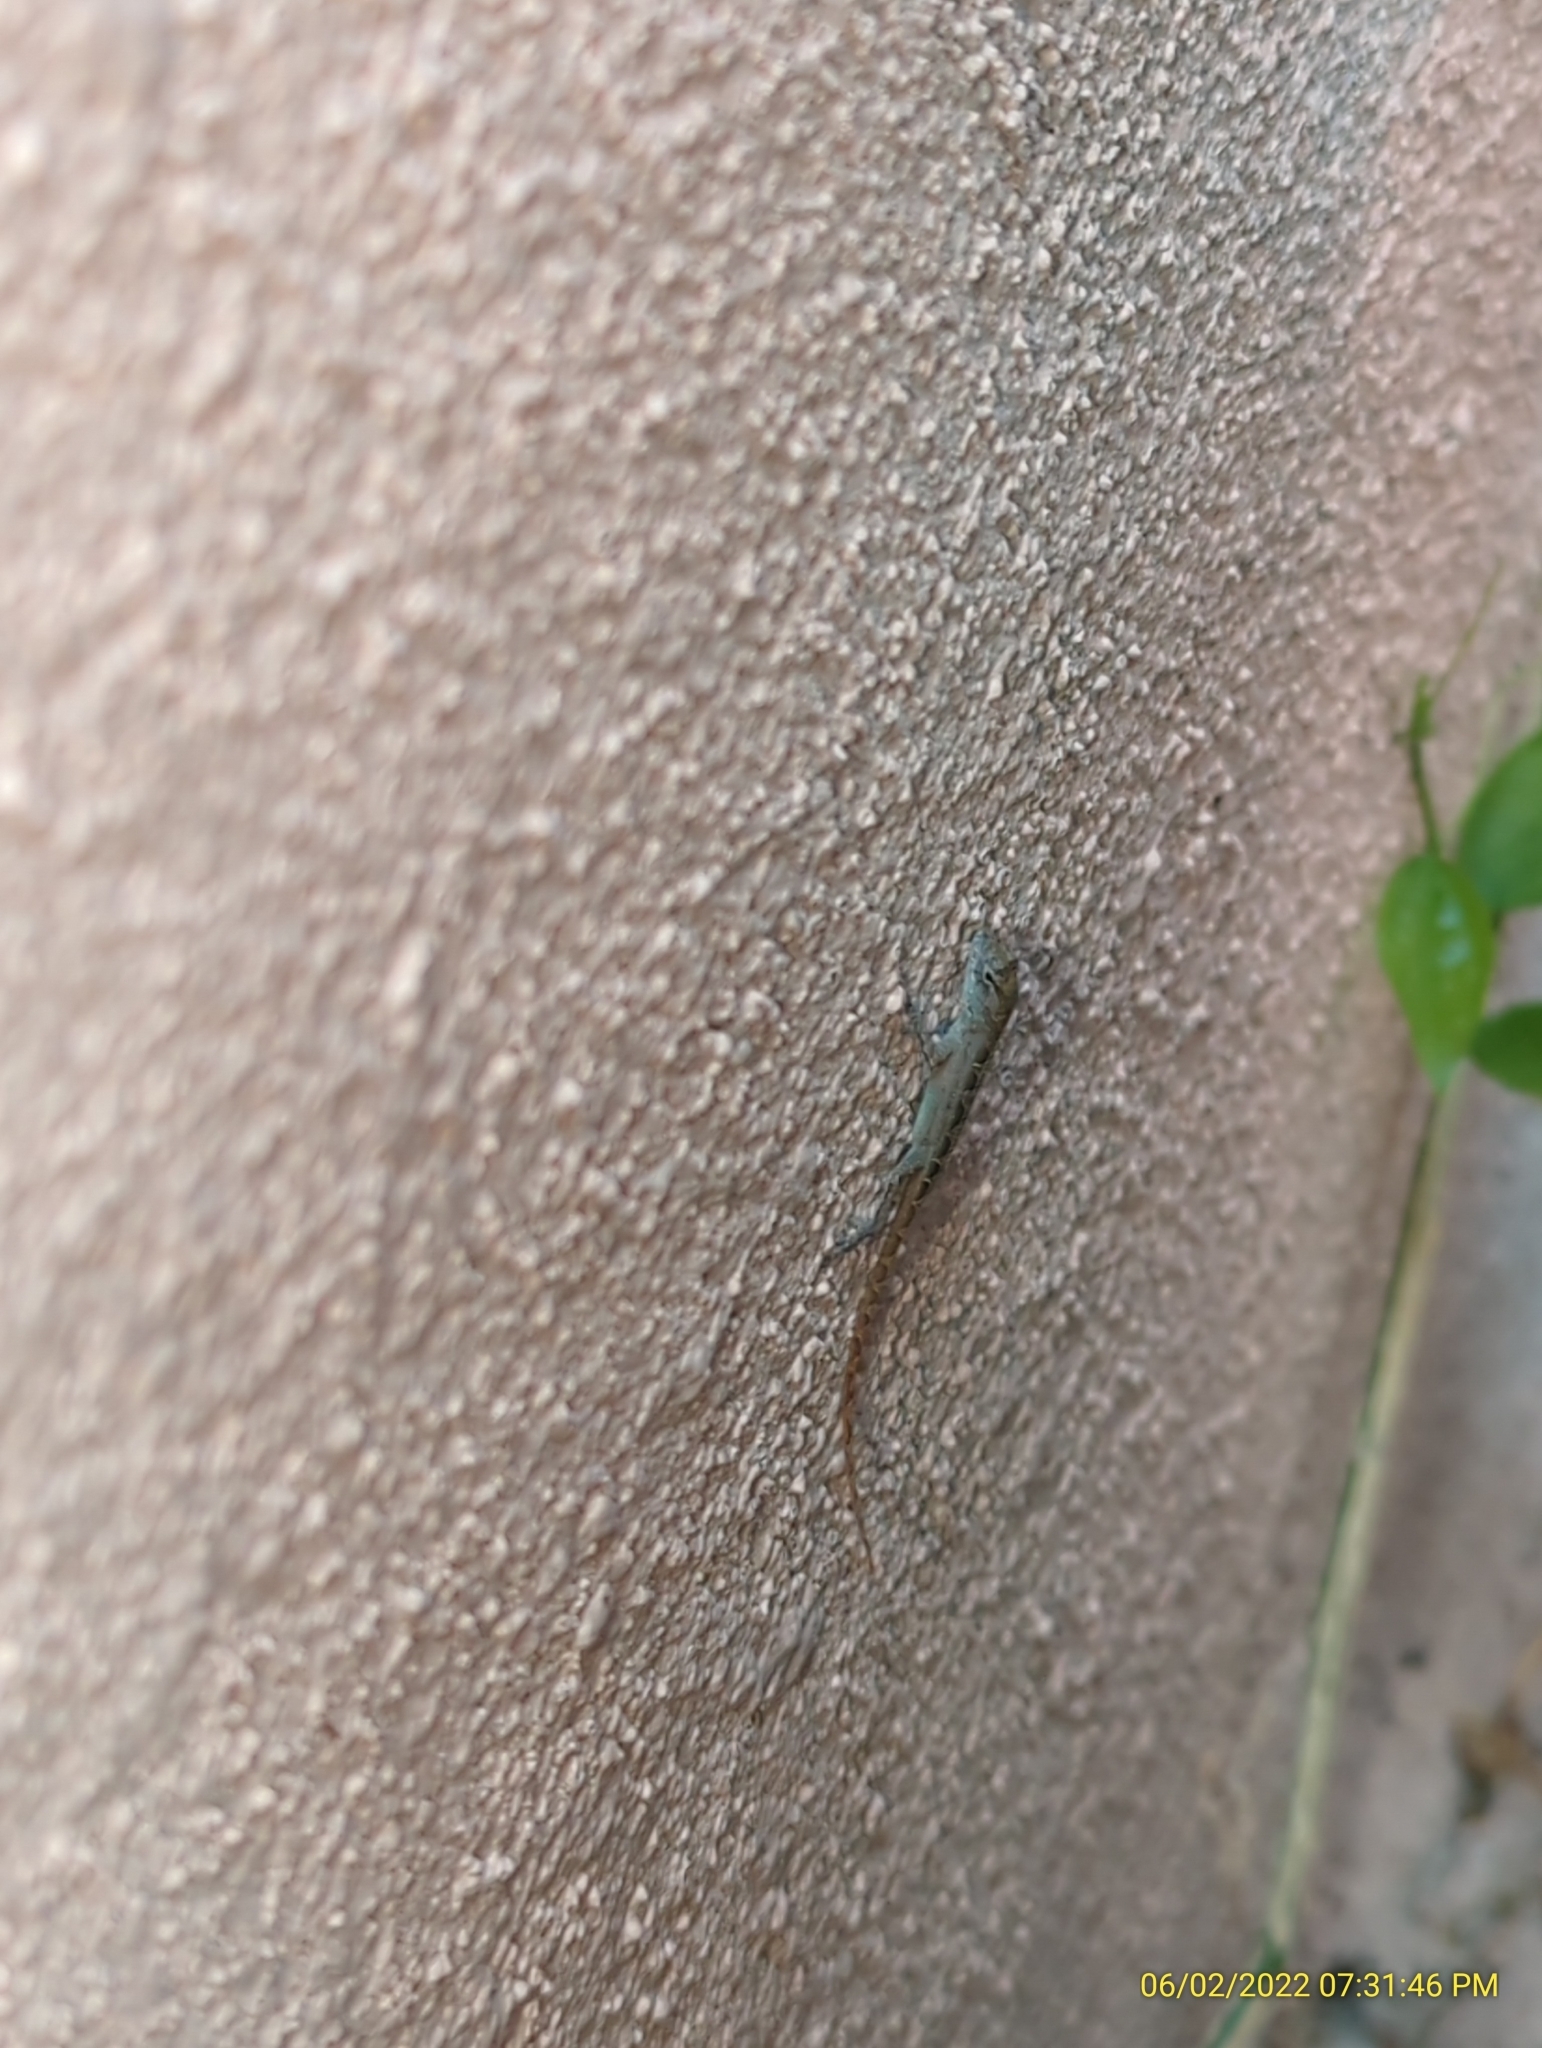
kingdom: Animalia
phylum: Chordata
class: Squamata
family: Dactyloidae
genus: Anolis
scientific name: Anolis sagrei
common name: Brown anole
